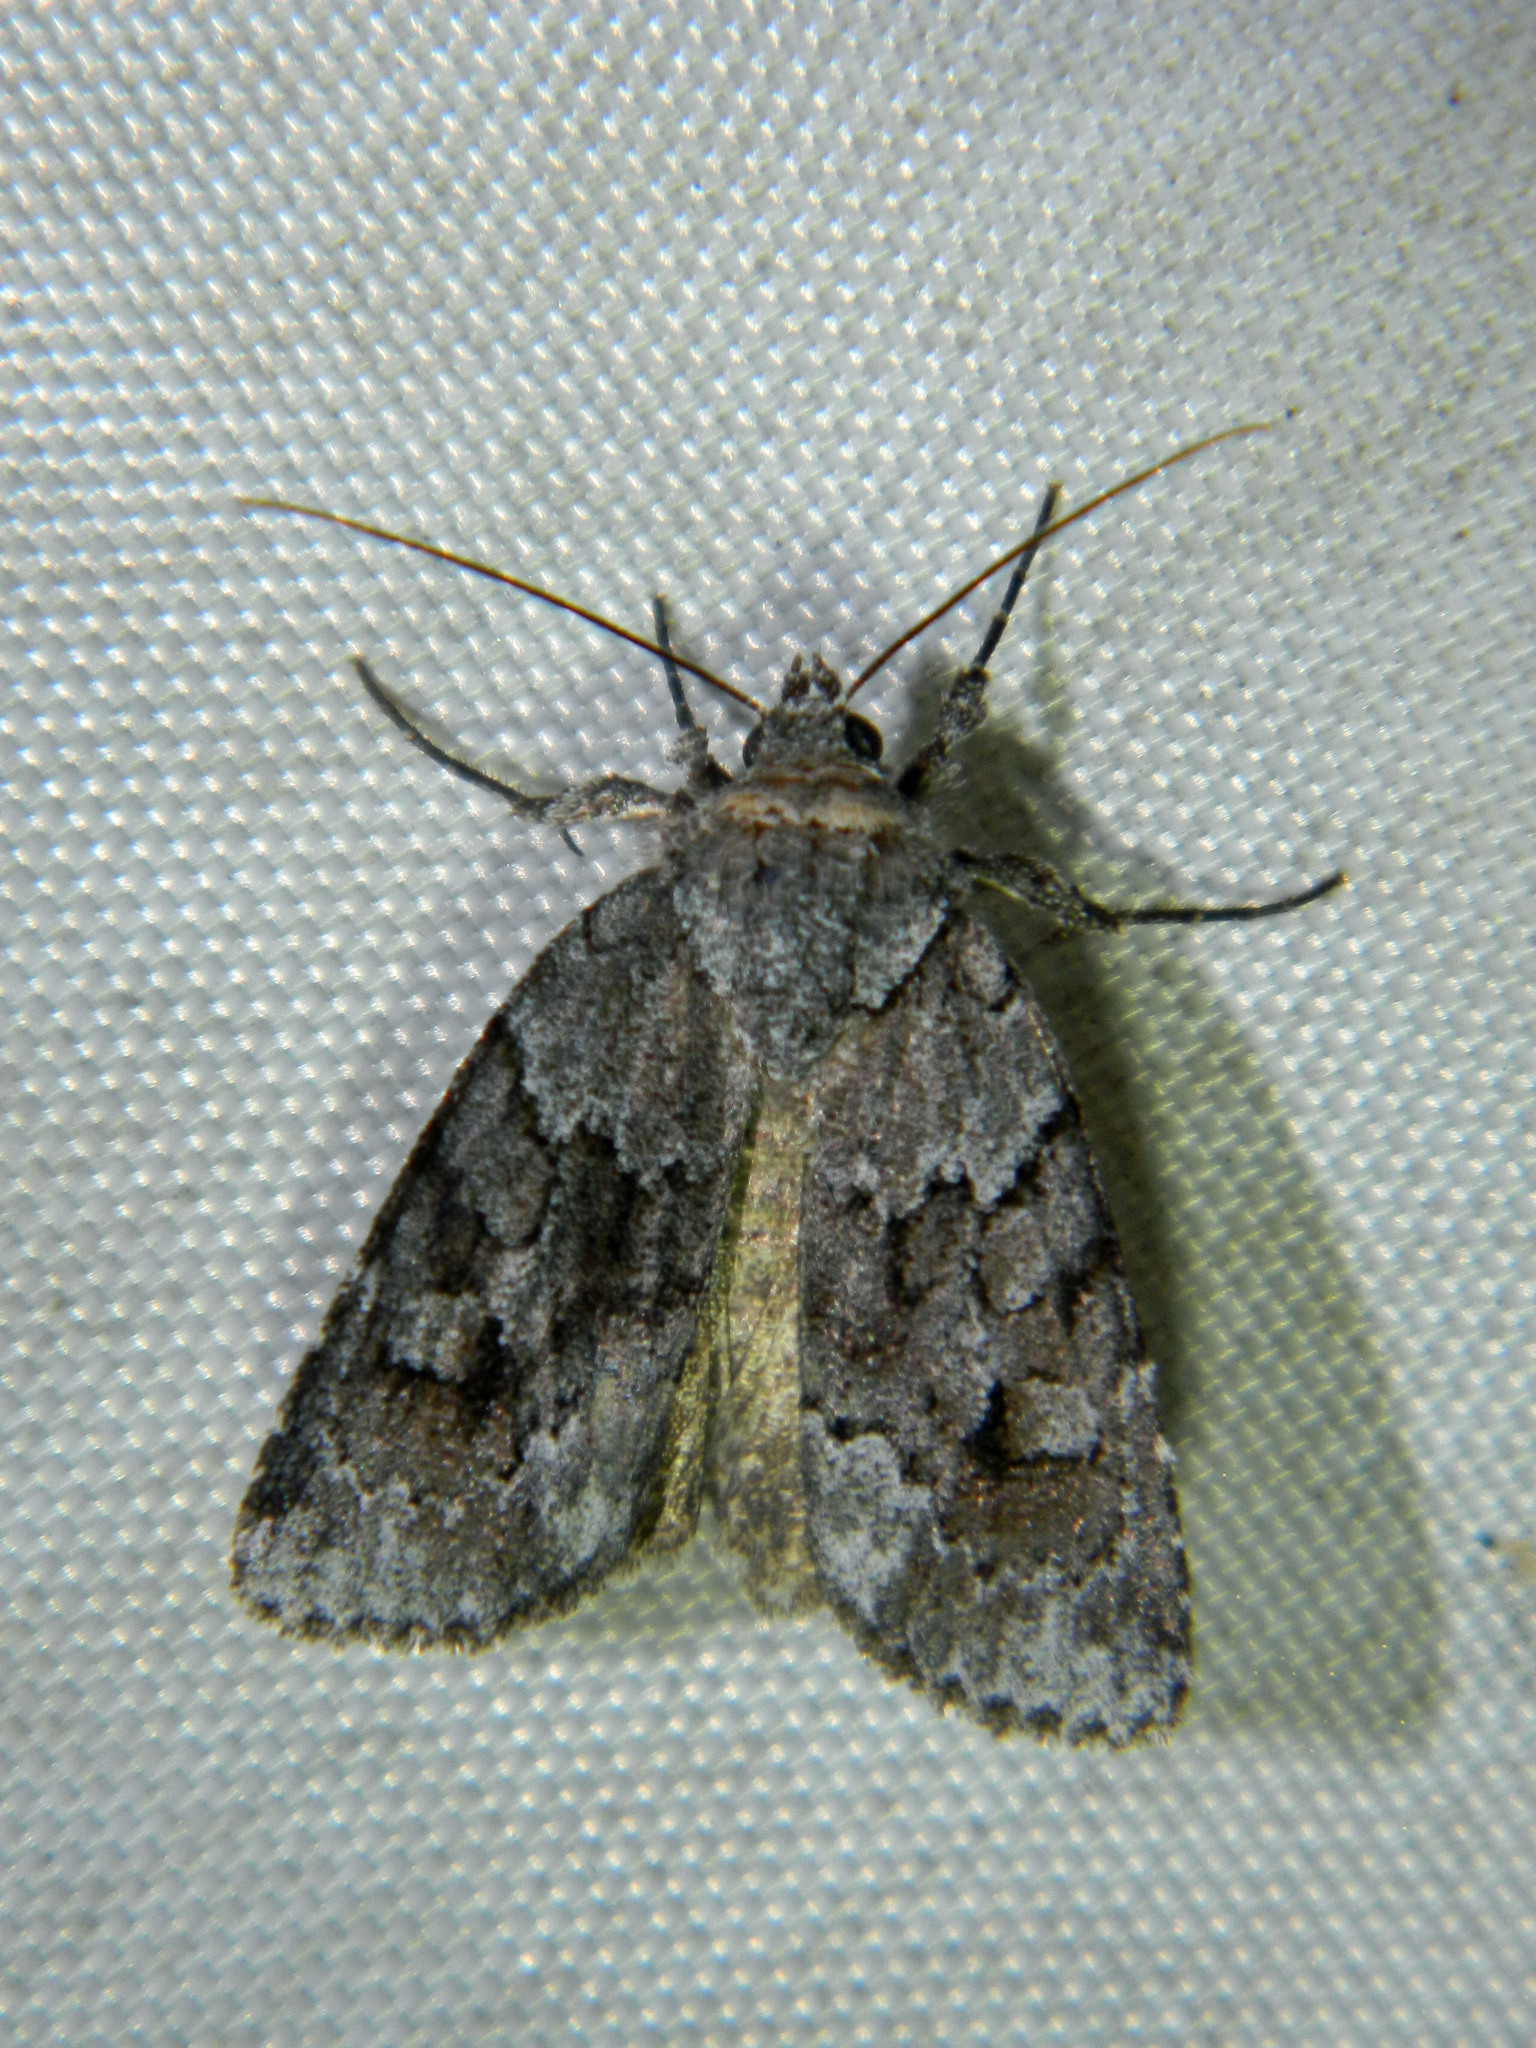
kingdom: Animalia
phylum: Arthropoda
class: Insecta
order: Lepidoptera
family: Noctuidae
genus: Sympistis
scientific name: Sympistis dentata
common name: Blueberry sallow
